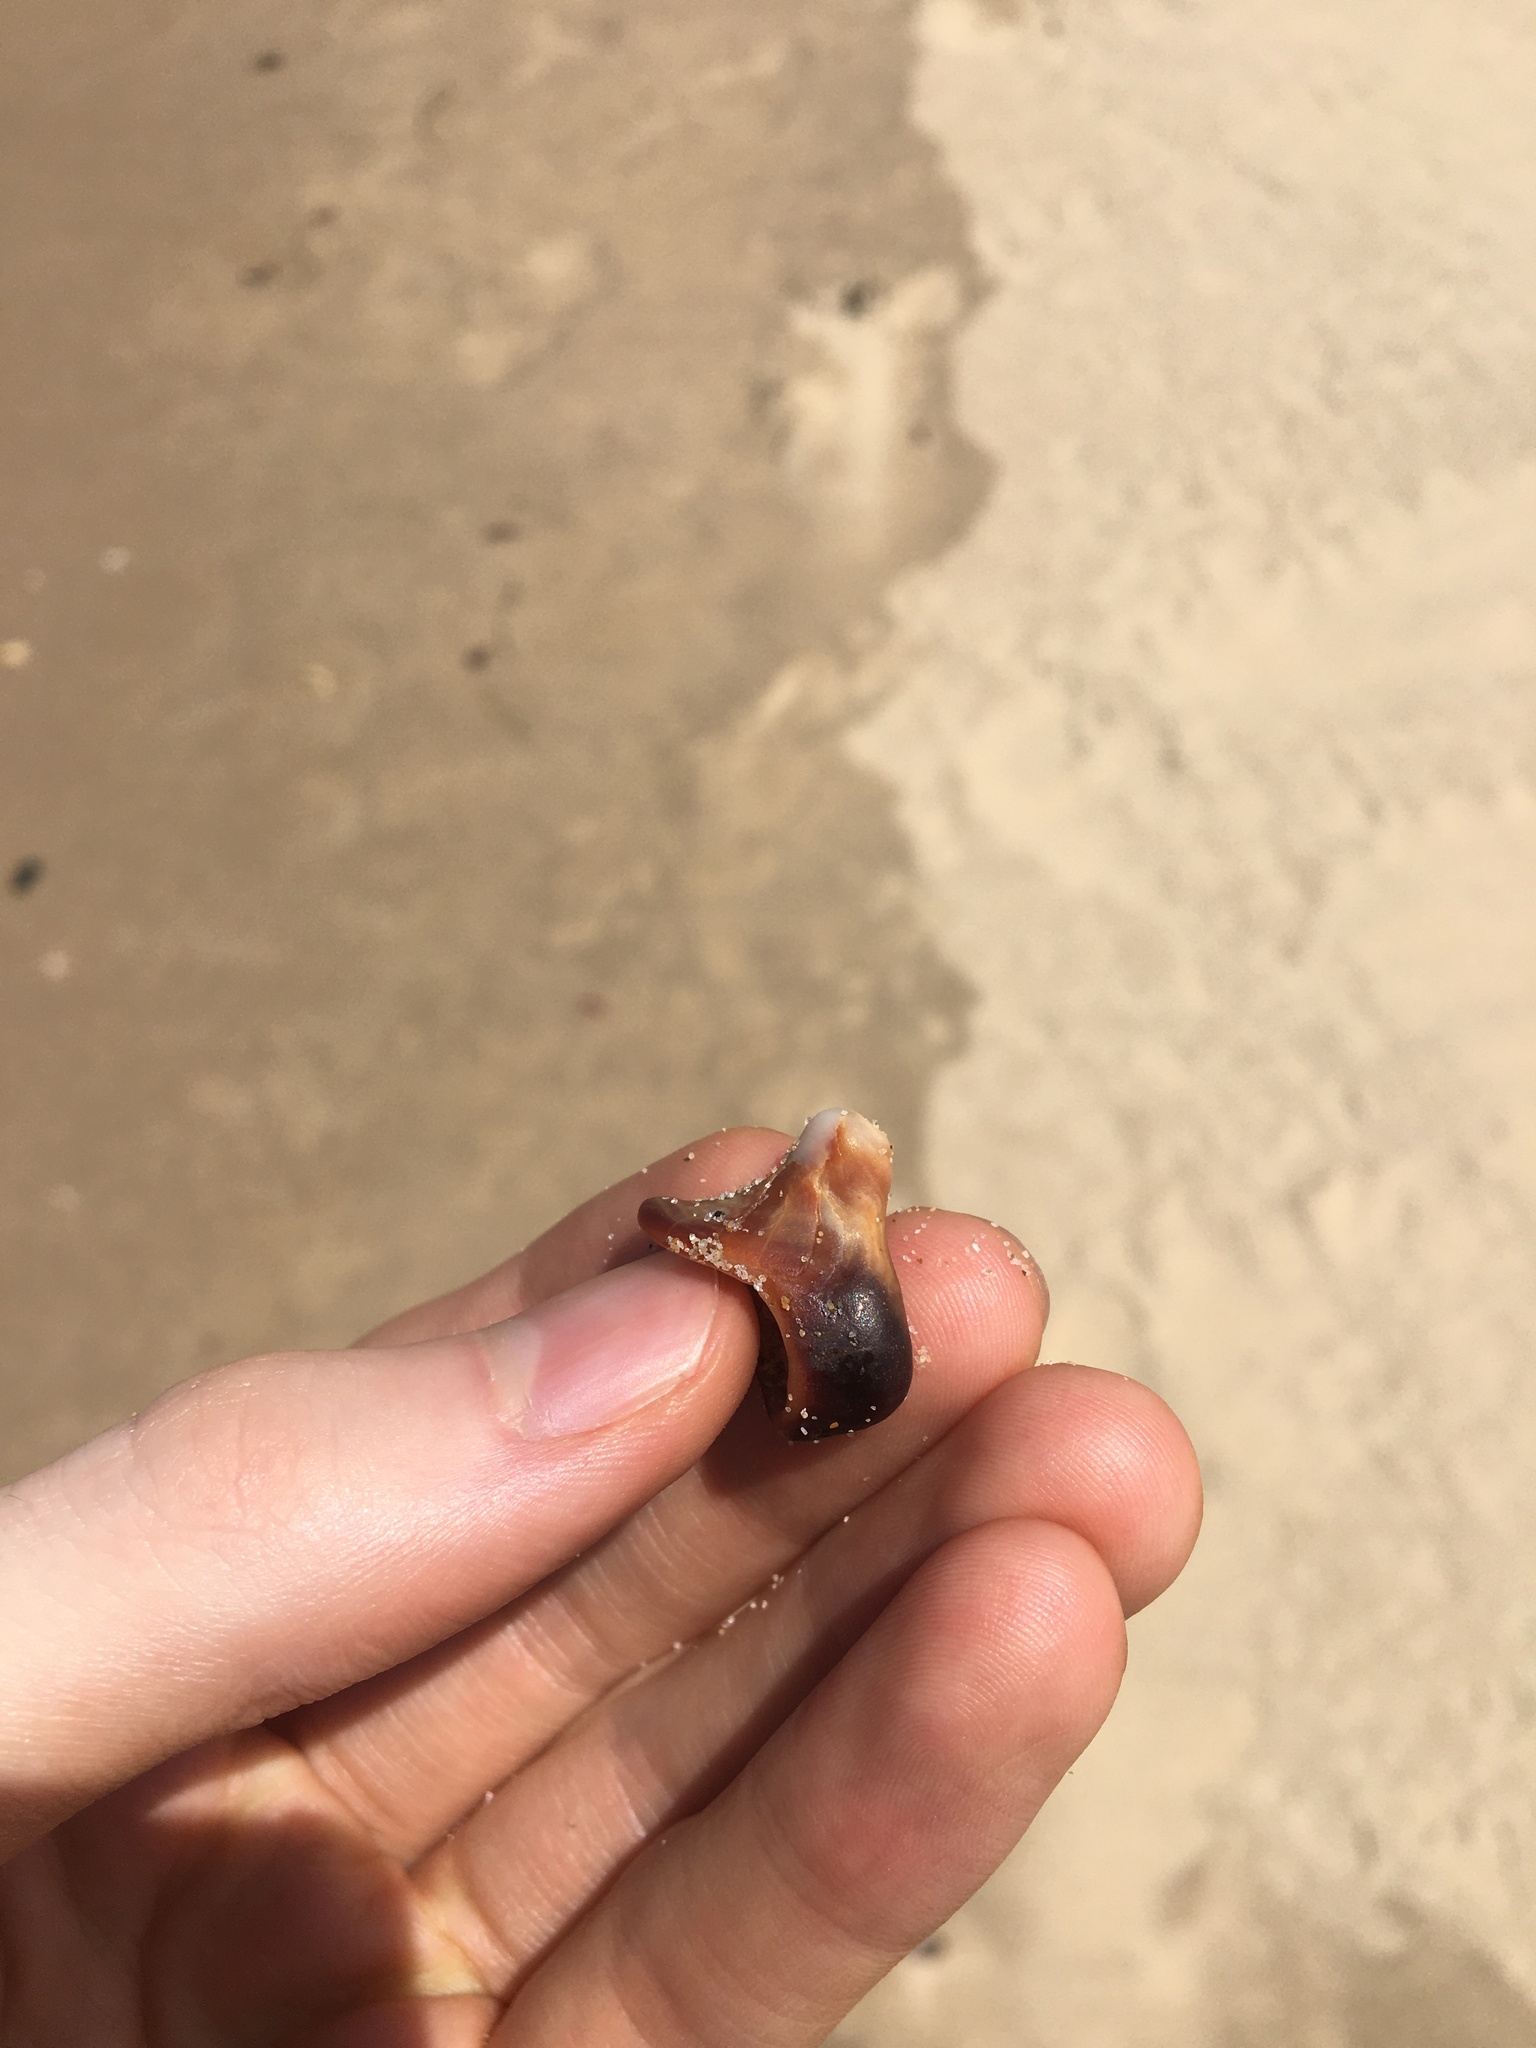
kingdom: Animalia
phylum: Mollusca
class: Gastropoda
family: Batillariidae
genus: Pyrazus
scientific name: Pyrazus ebeninus
